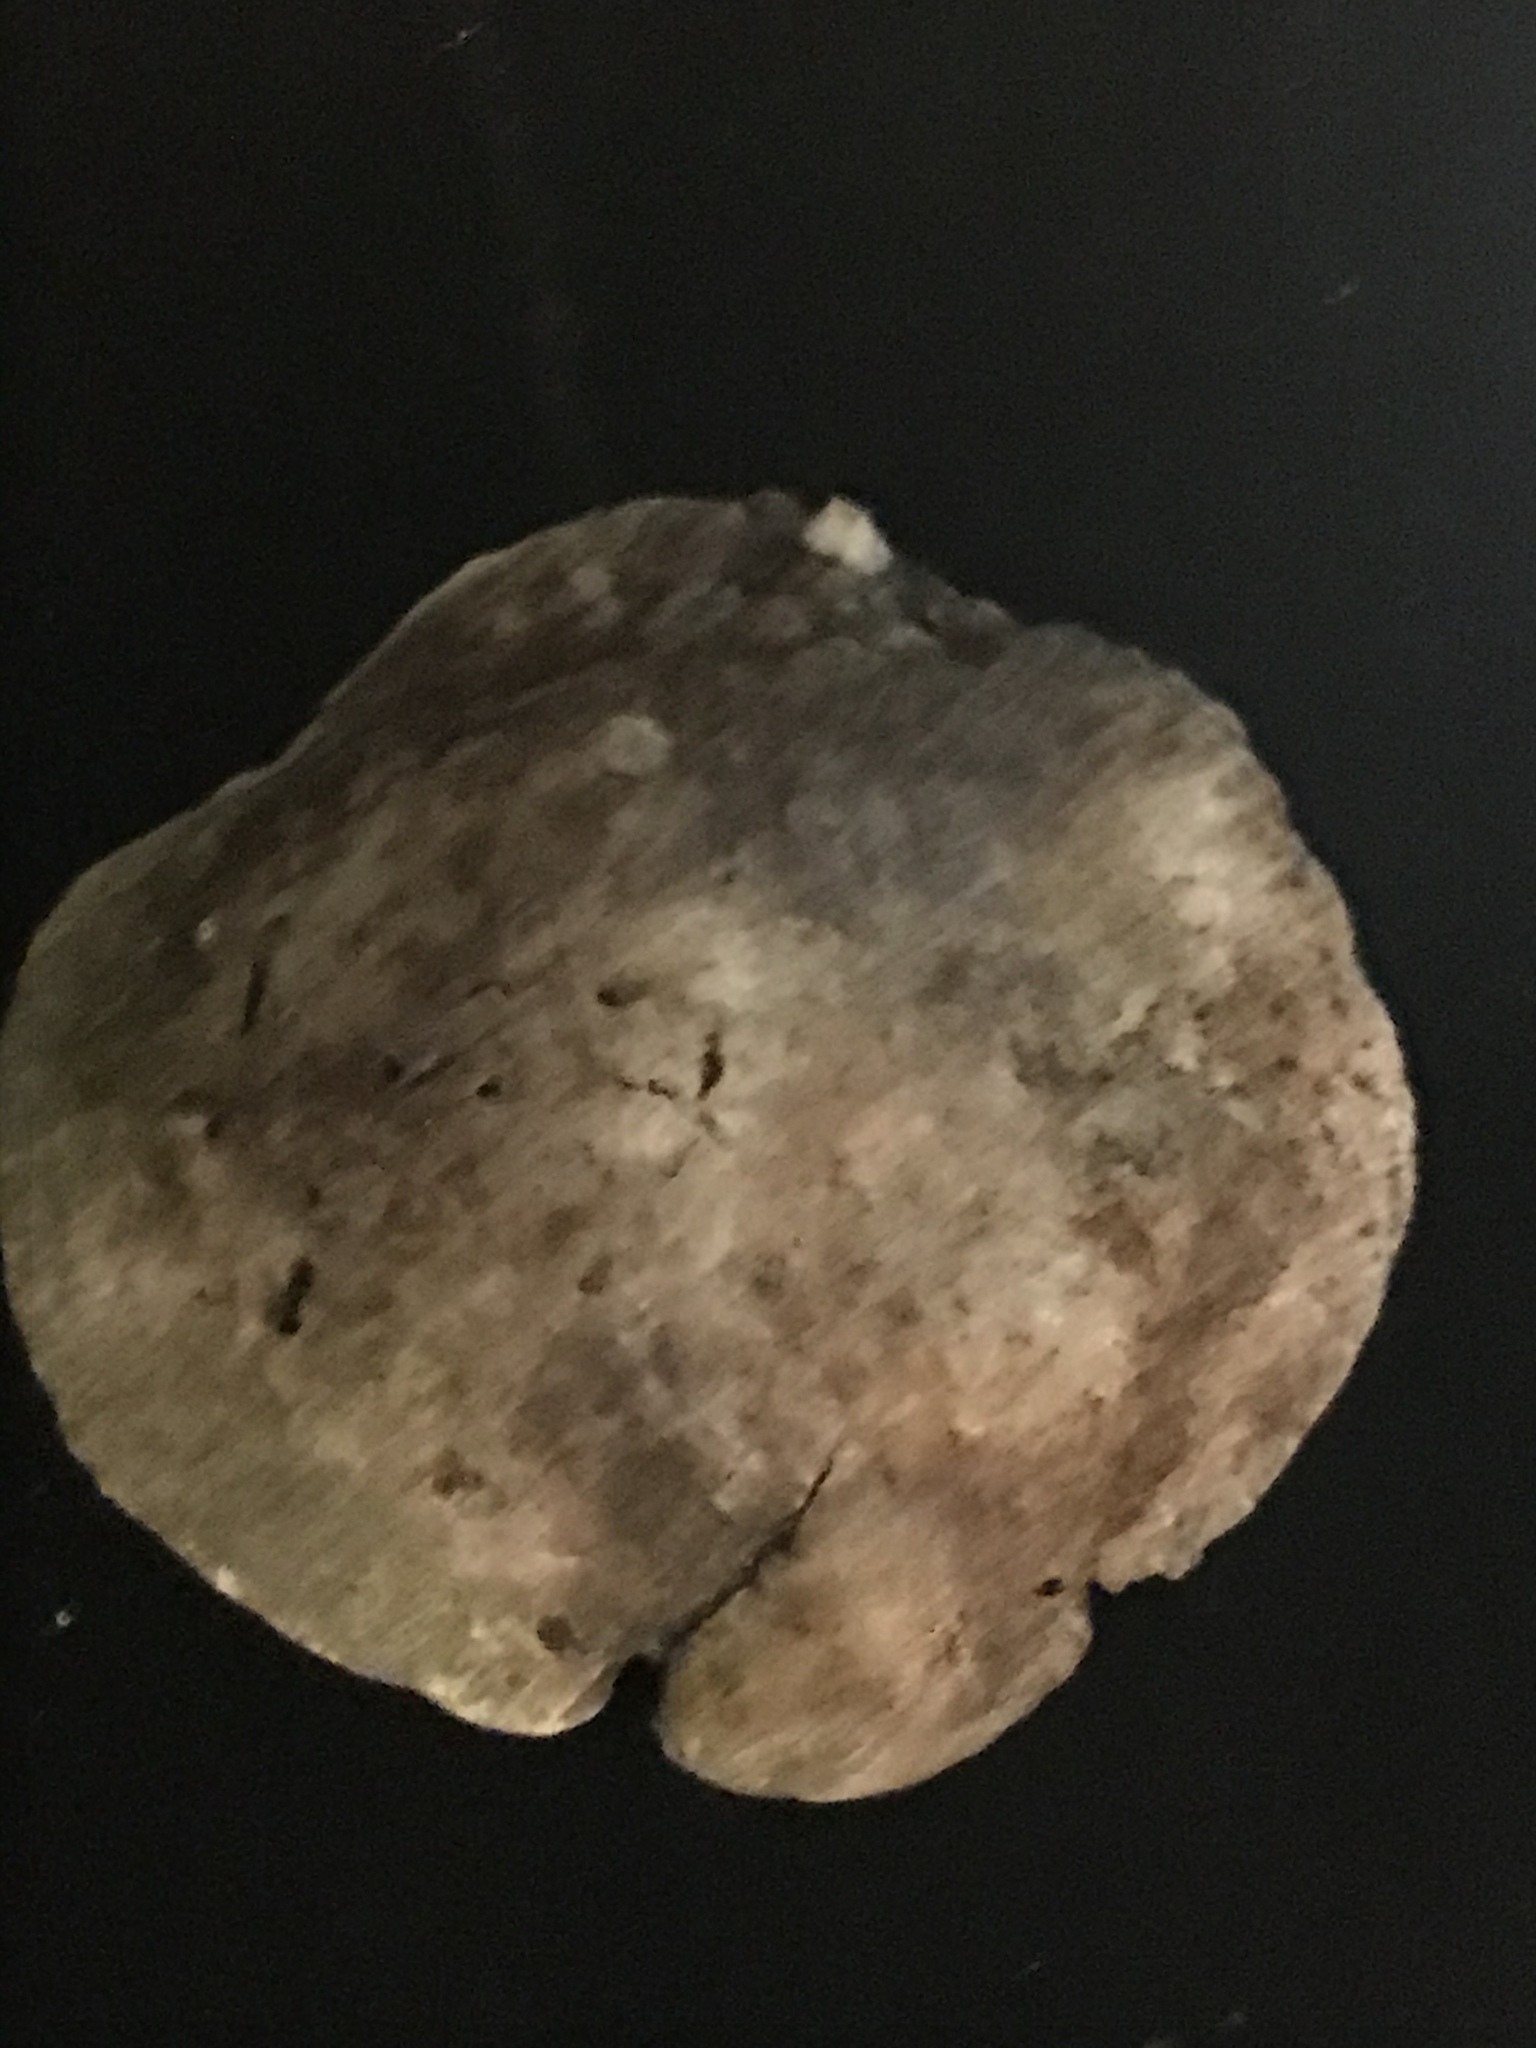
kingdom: Animalia
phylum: Mollusca
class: Bivalvia
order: Pectinida
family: Anomiidae
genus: Pododesmus
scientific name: Pododesmus macrochisma
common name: Alaska jingle
